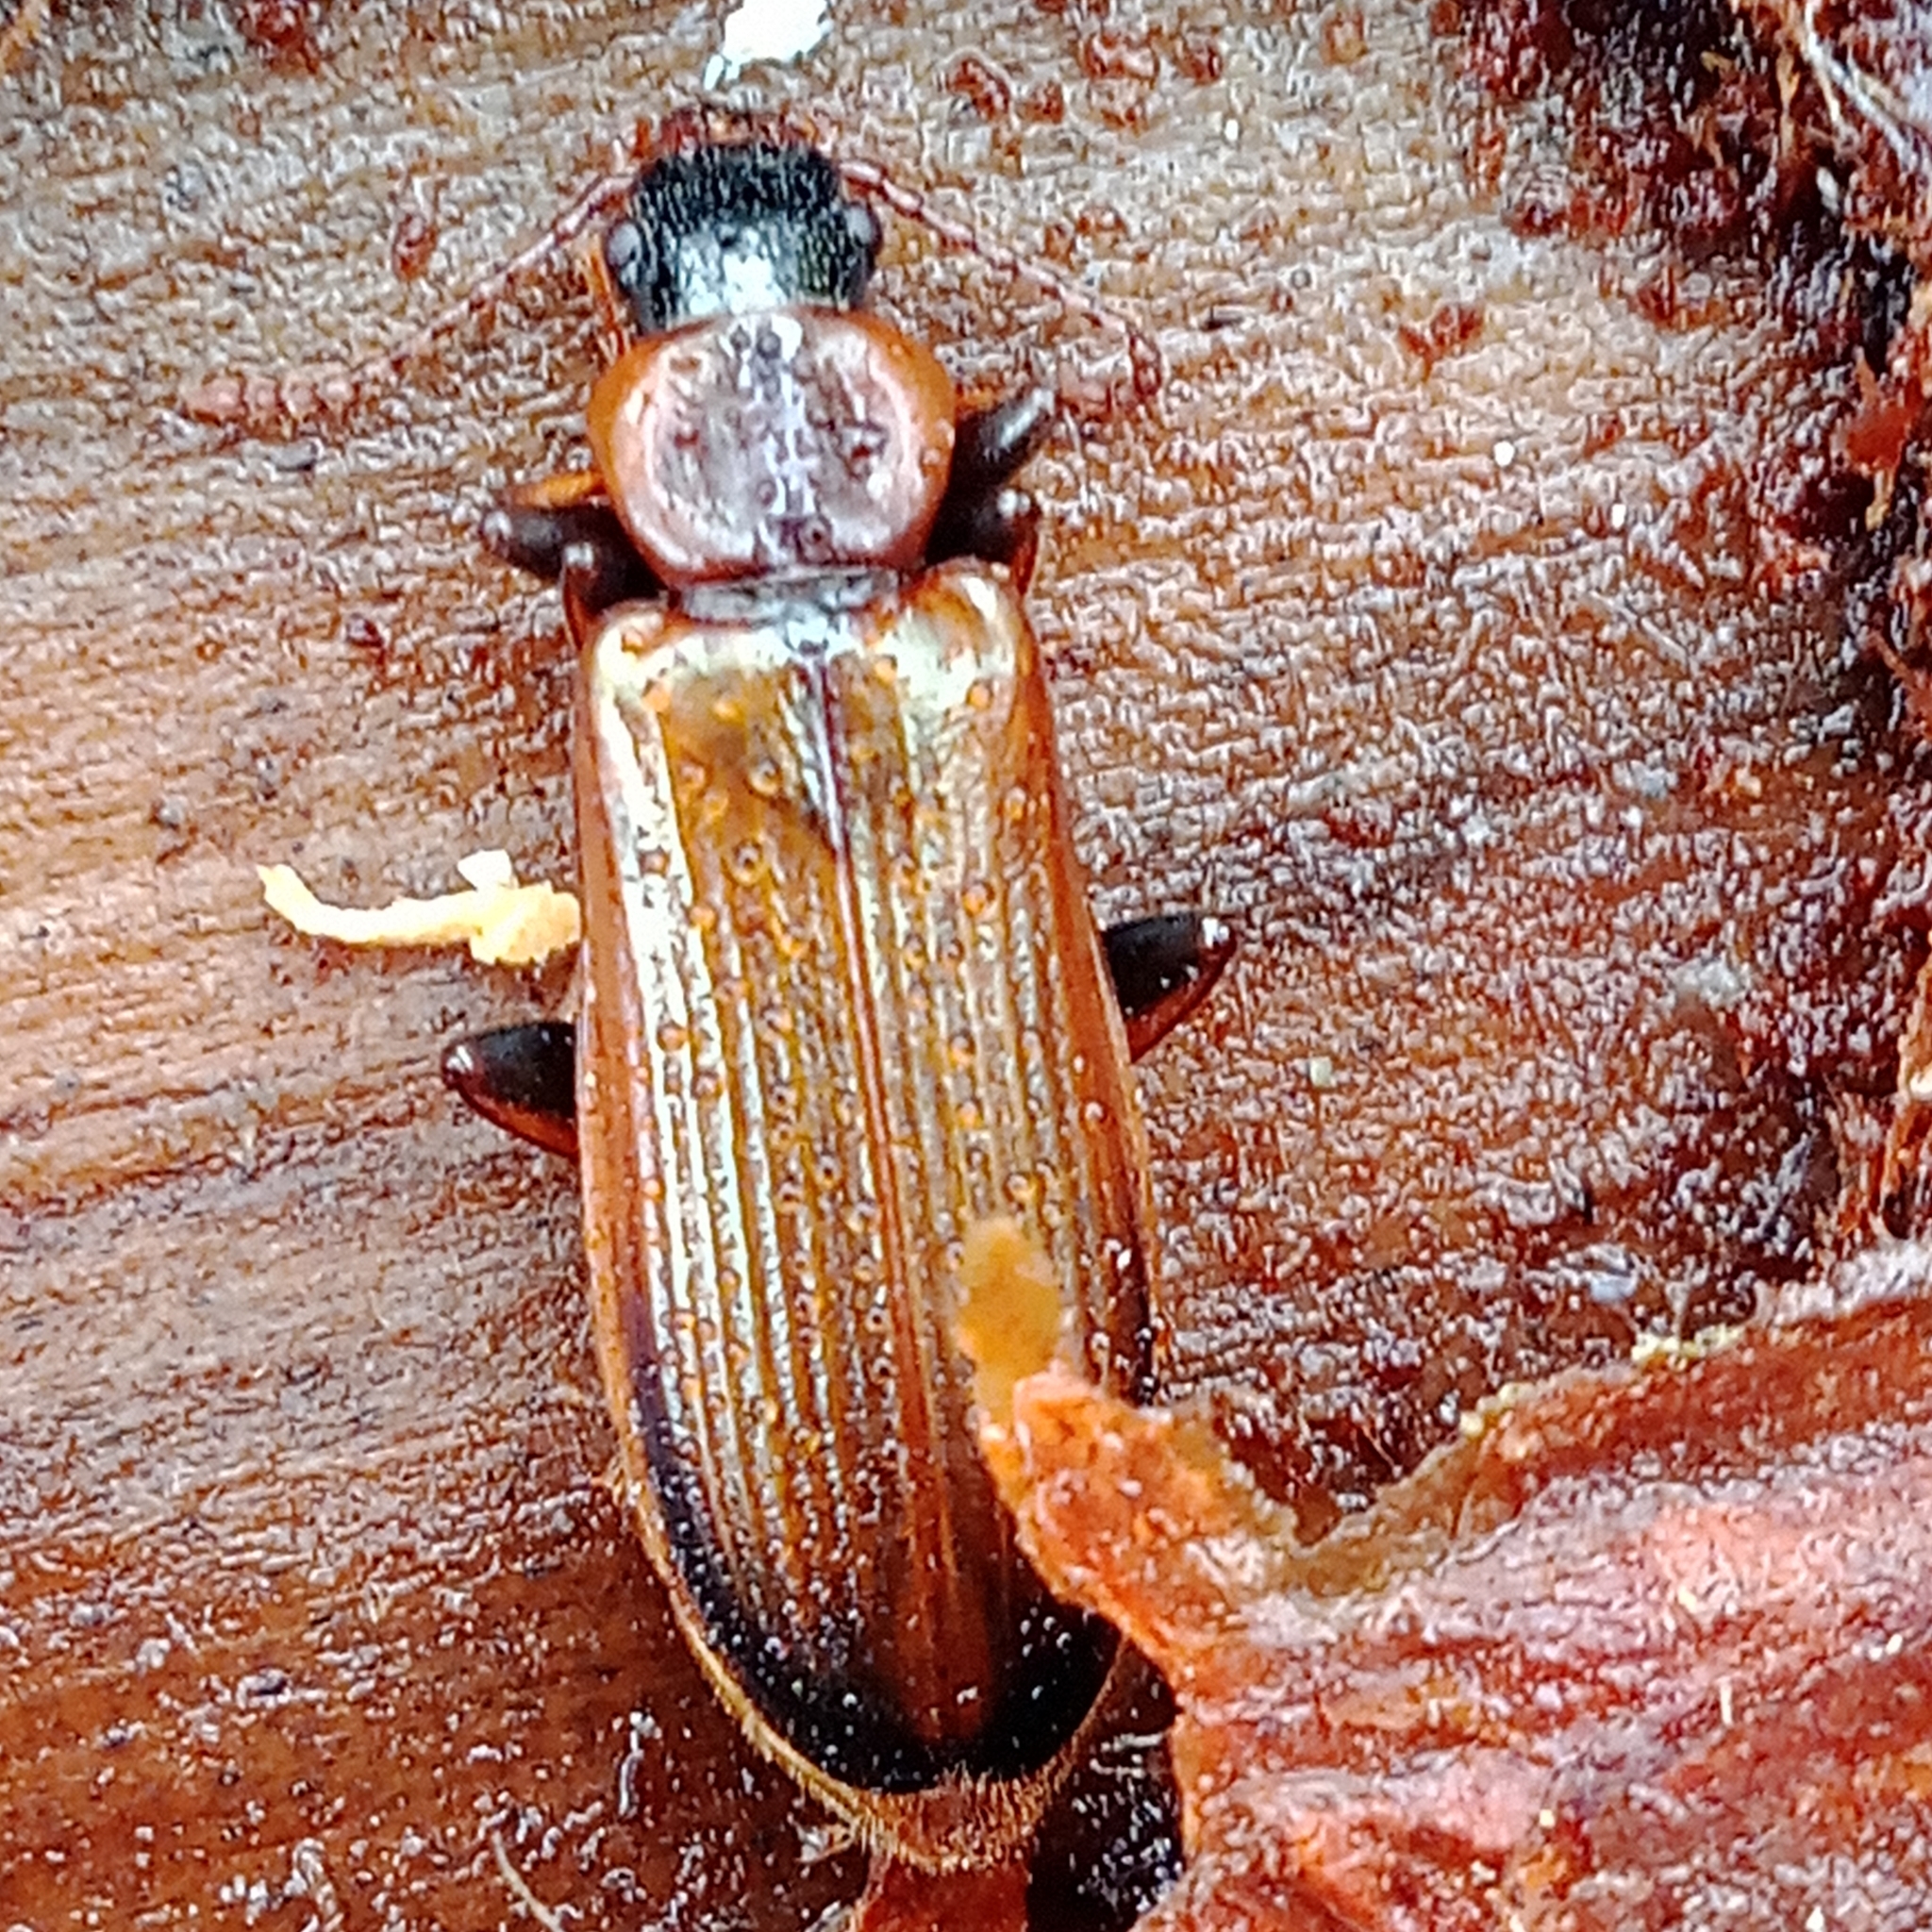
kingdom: Animalia
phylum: Arthropoda
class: Insecta
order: Coleoptera
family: Pythidae
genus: Pytho
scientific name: Pytho depressus
